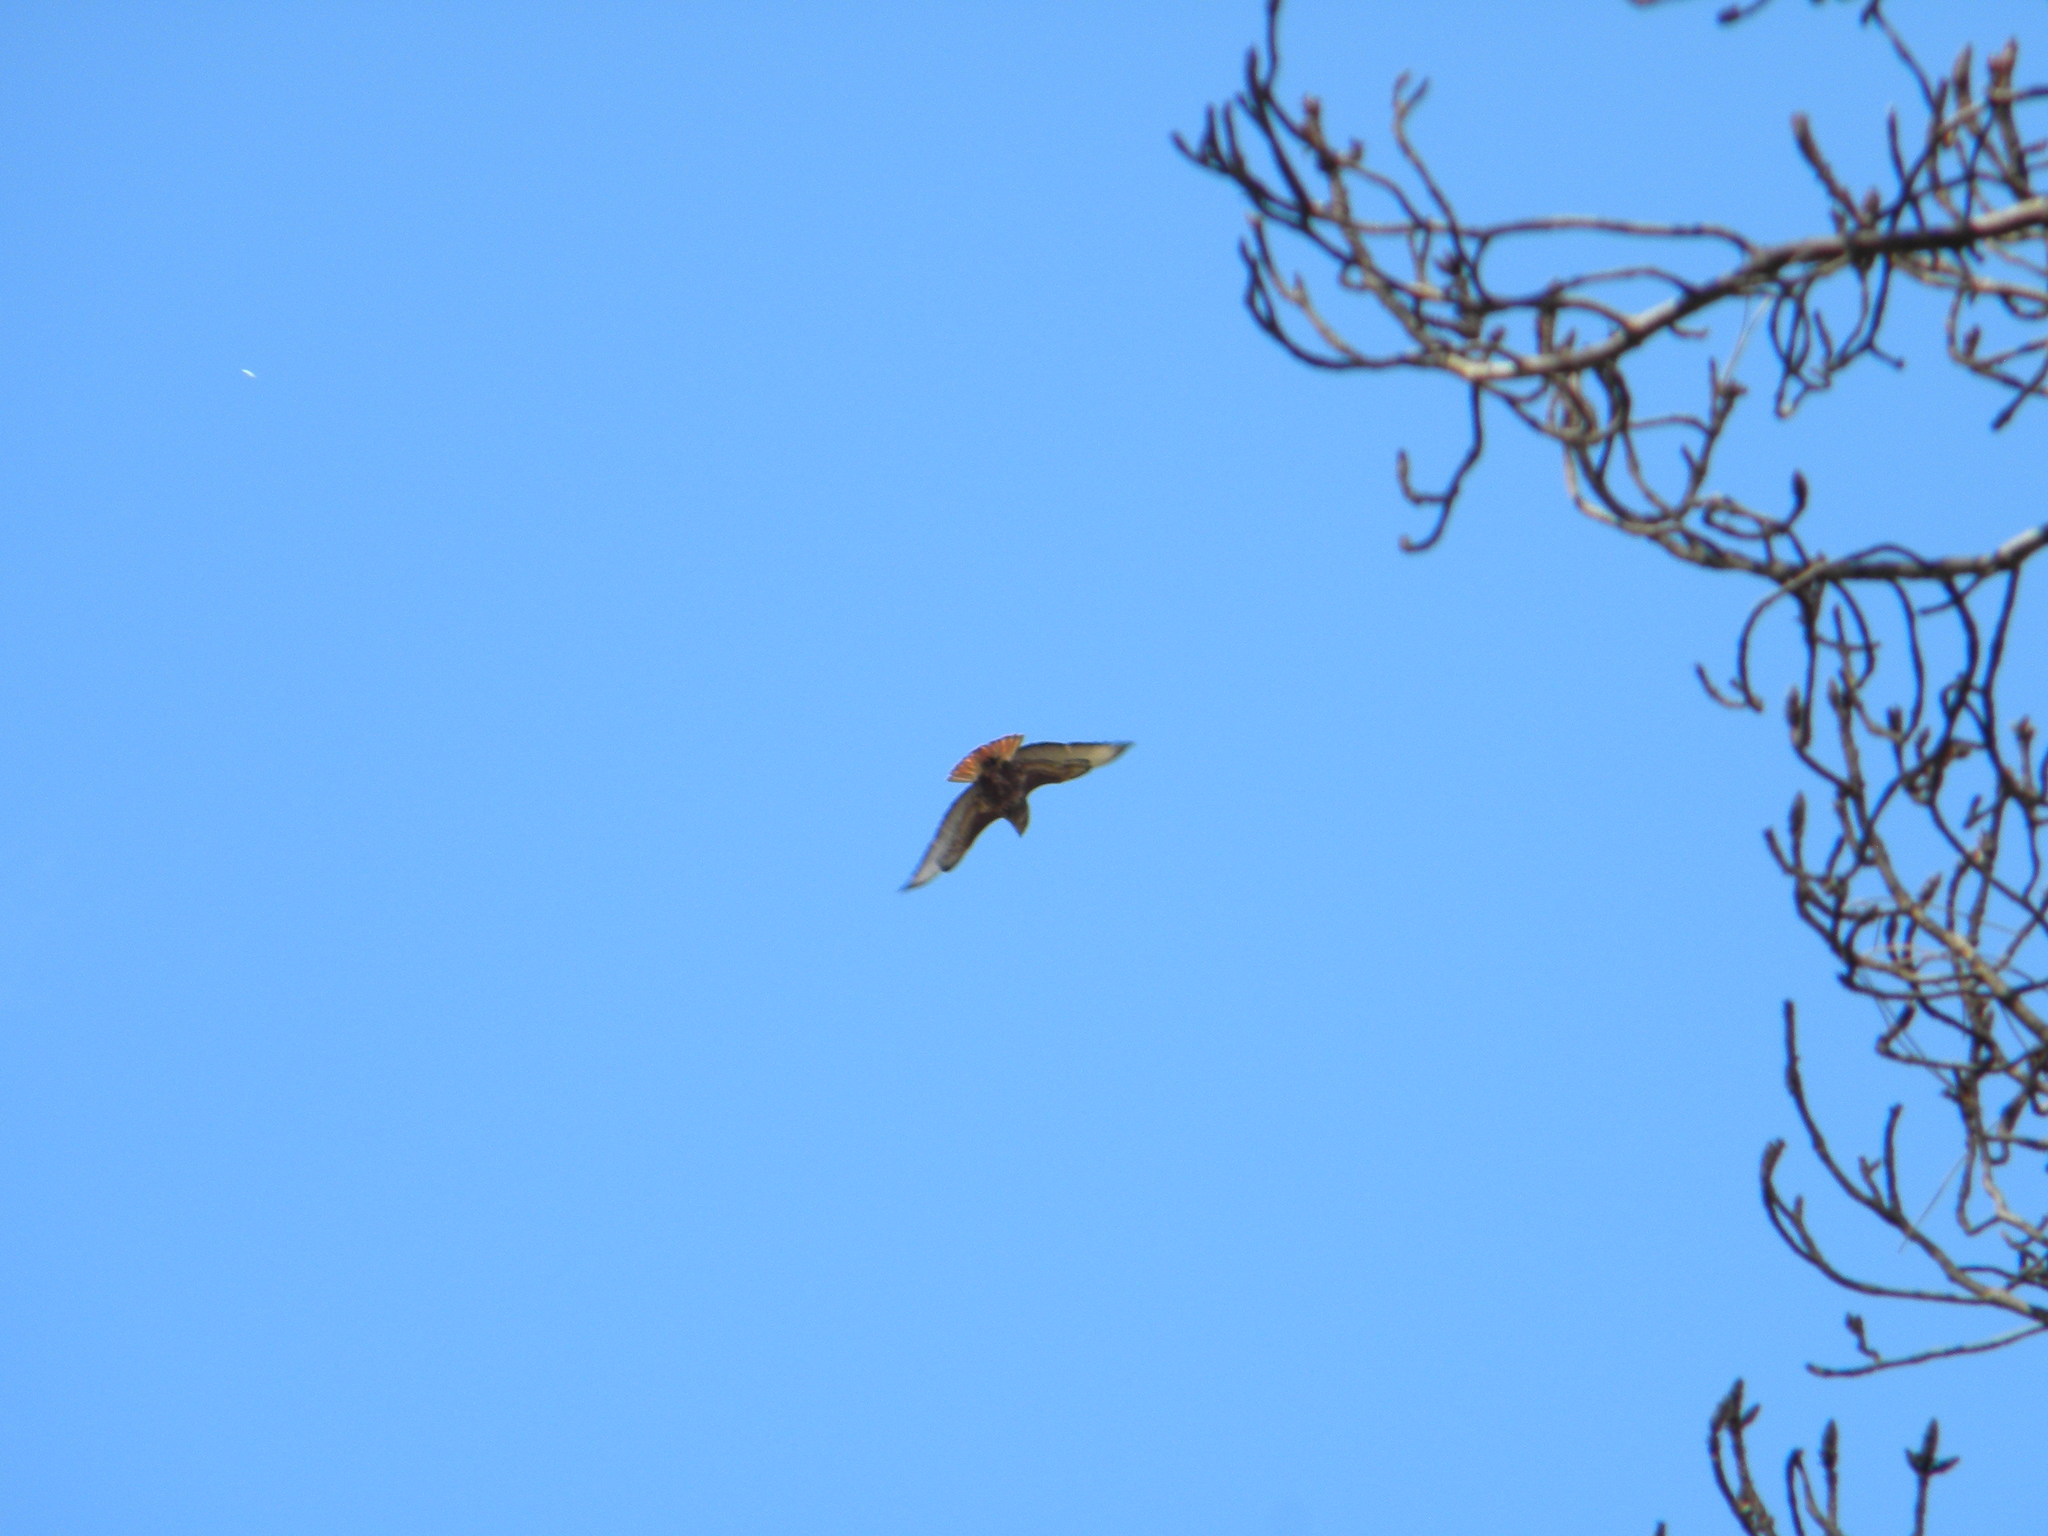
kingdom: Animalia
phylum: Chordata
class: Aves
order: Accipitriformes
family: Accipitridae
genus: Buteo
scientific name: Buteo buteo
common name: Common buzzard
